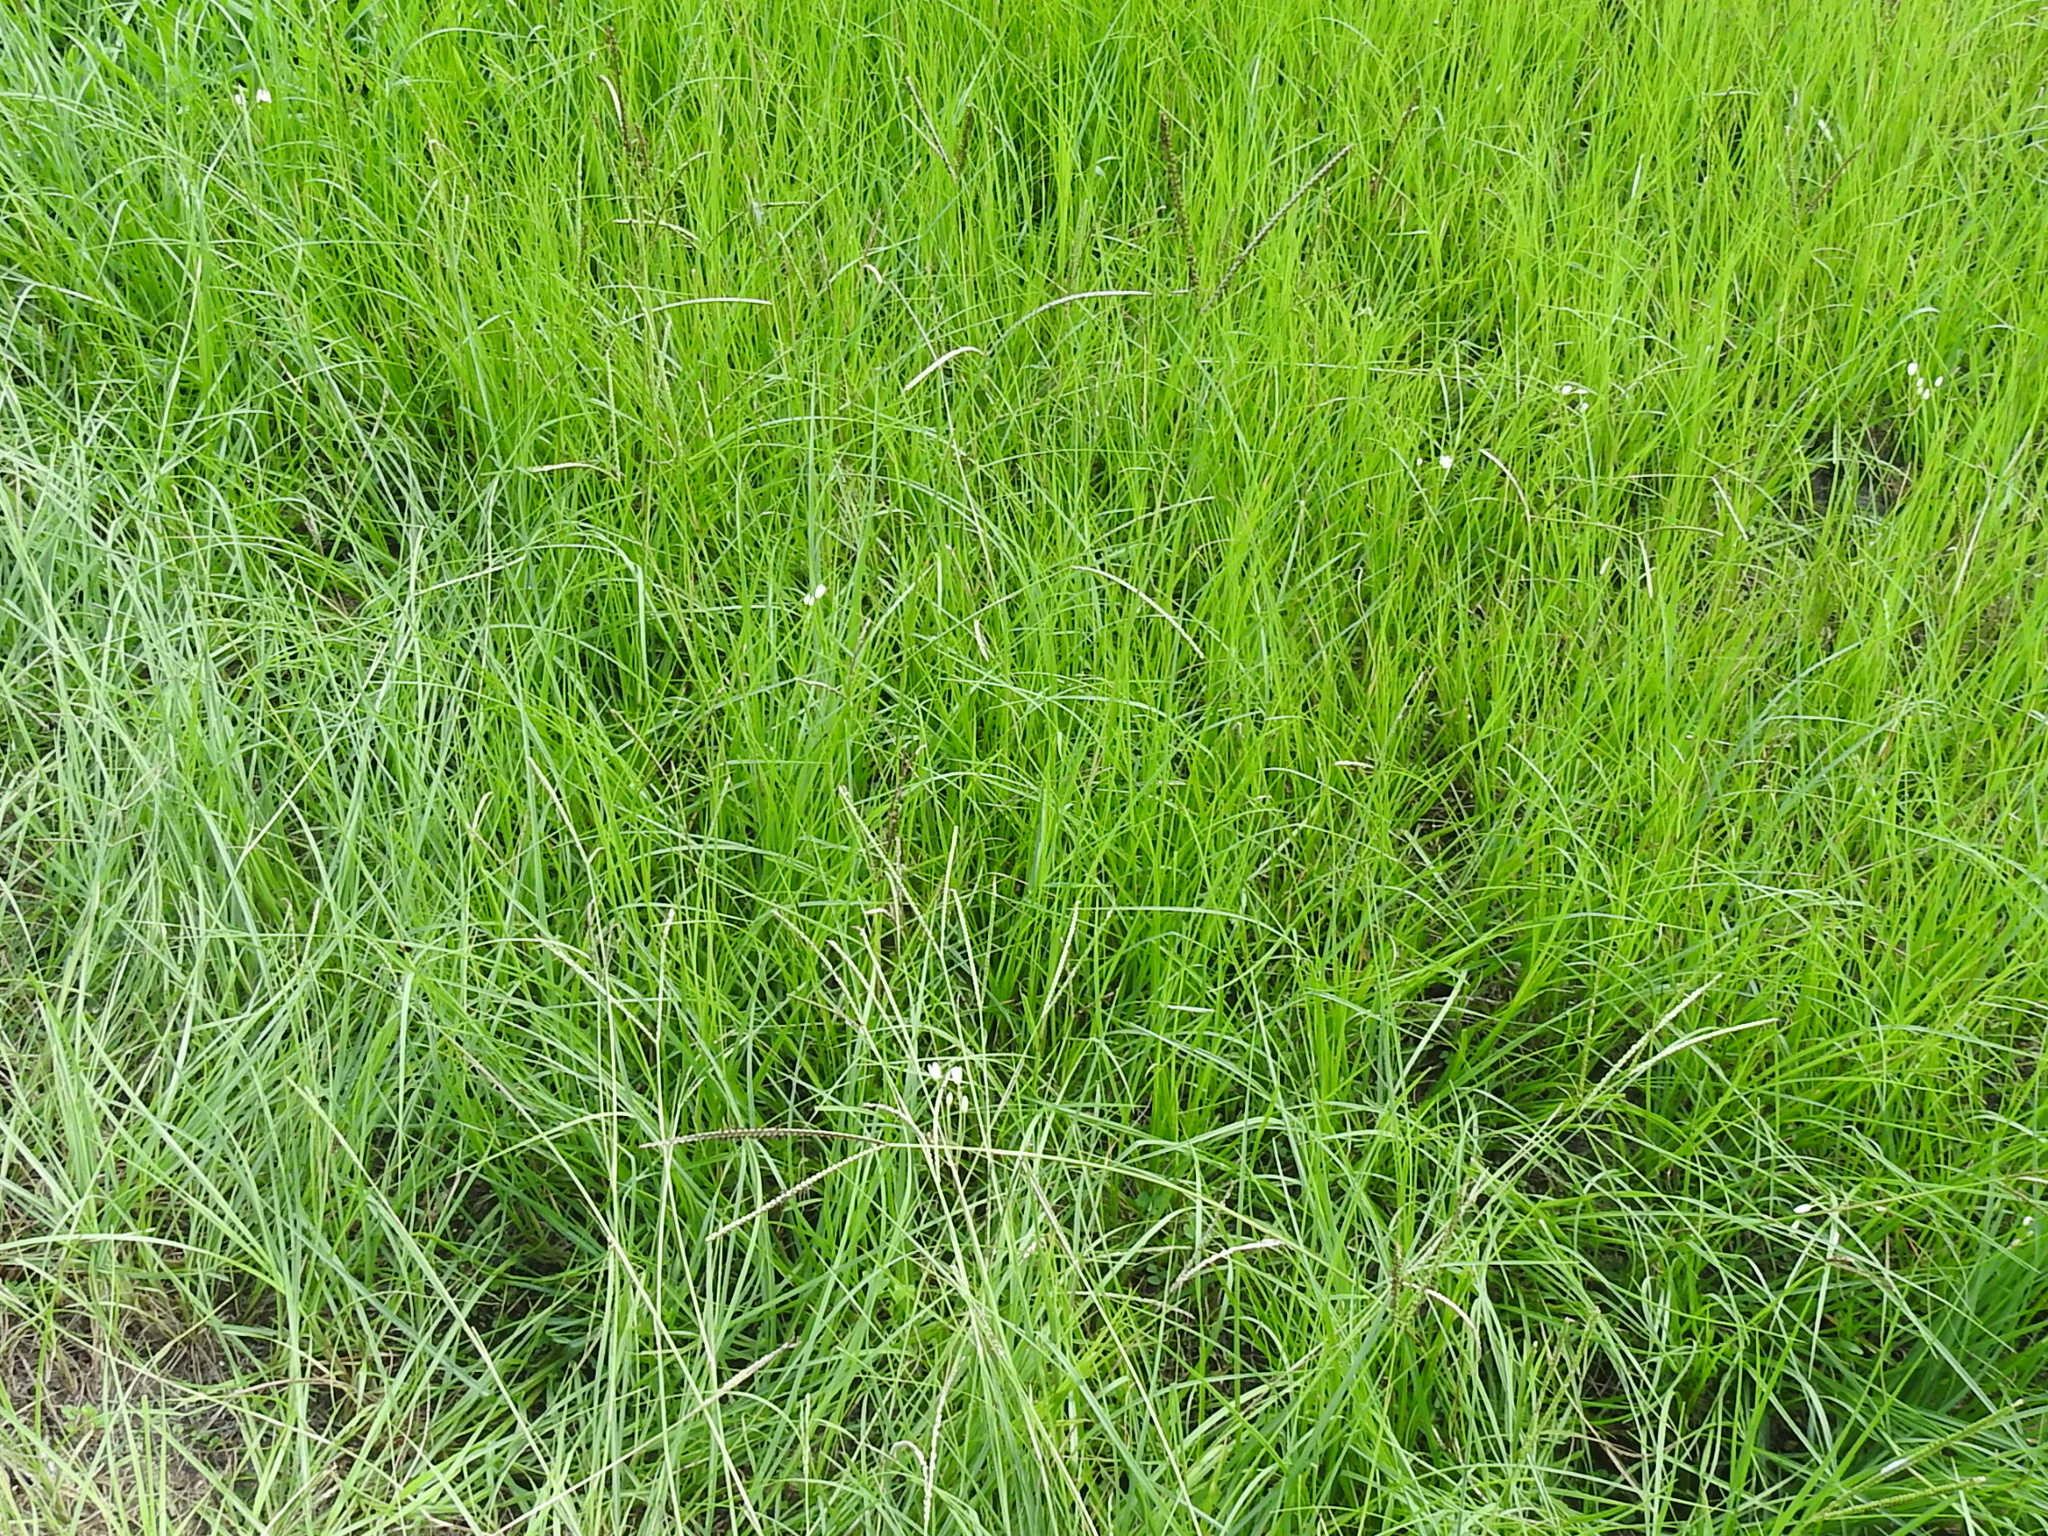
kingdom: Plantae
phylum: Tracheophyta
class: Liliopsida
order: Poales
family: Poaceae
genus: Paspalum
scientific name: Paspalum notatum
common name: Bahiagrass
